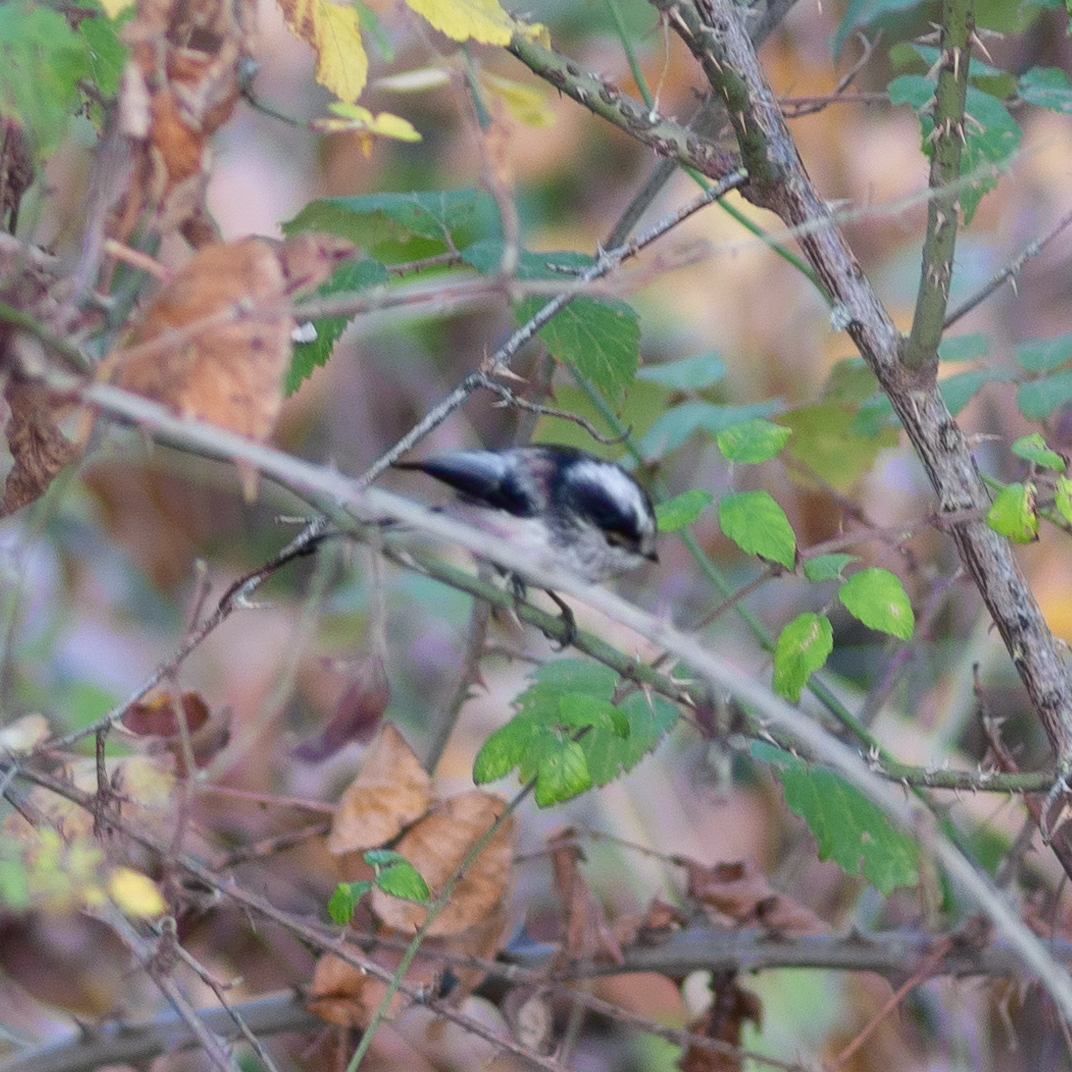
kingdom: Animalia
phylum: Chordata
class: Aves
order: Passeriformes
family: Aegithalidae
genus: Aegithalos
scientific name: Aegithalos caudatus
